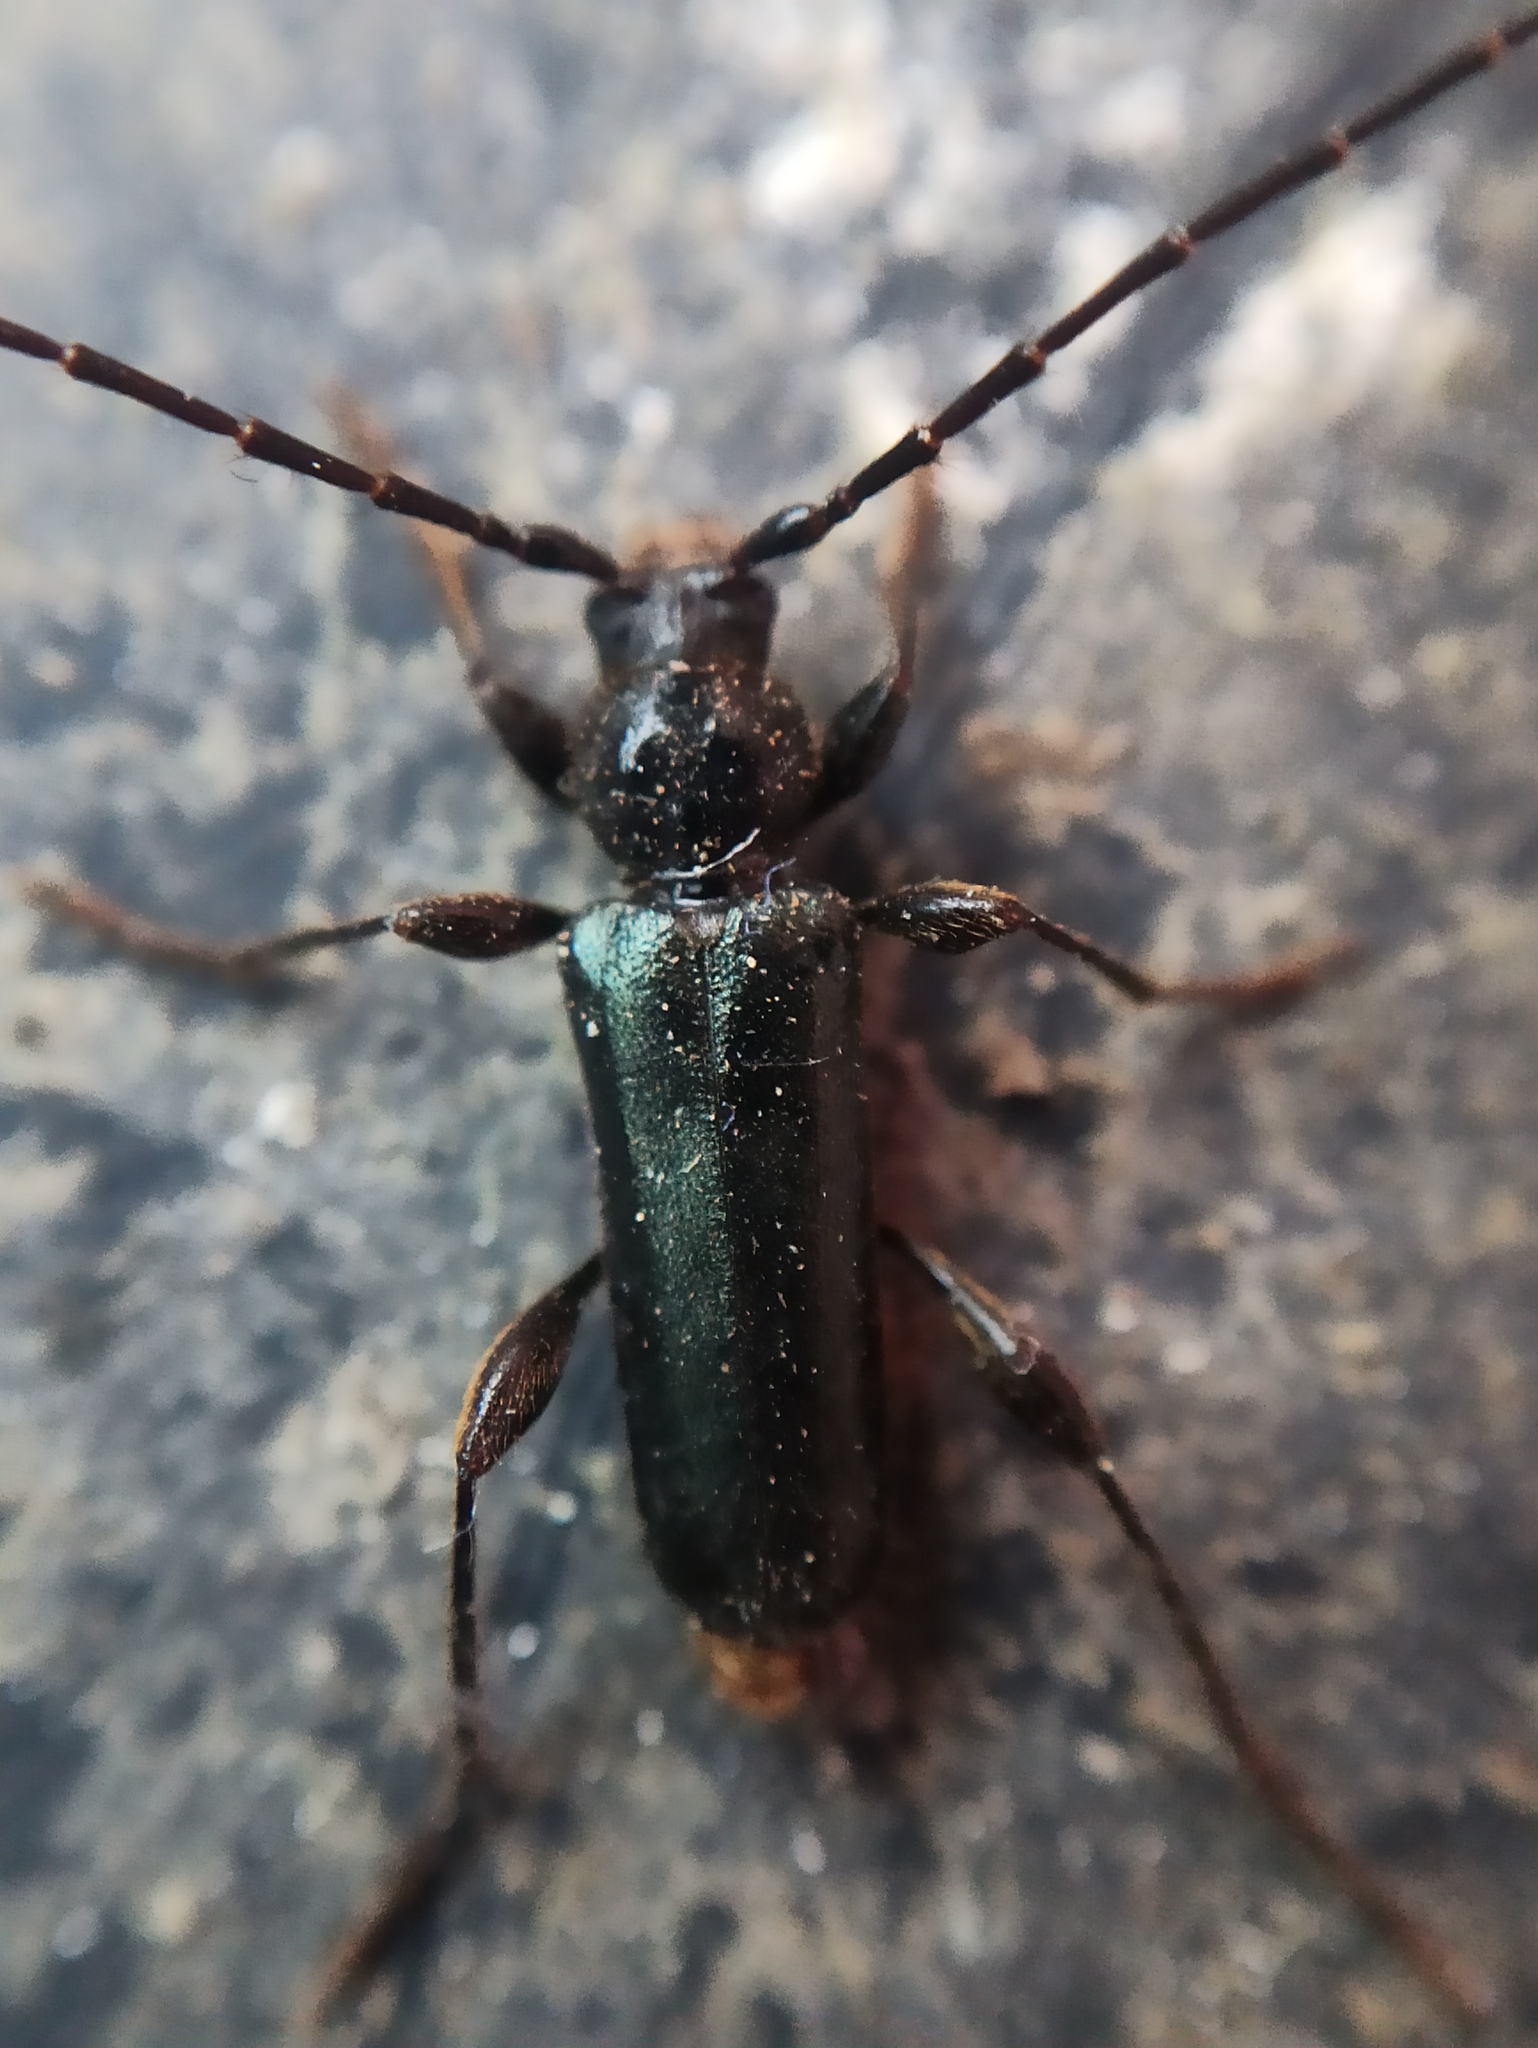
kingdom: Animalia
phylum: Arthropoda
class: Insecta
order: Coleoptera
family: Cerambycidae
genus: Phymatodes
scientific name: Phymatodes testaceus
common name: Long-horned beetle
